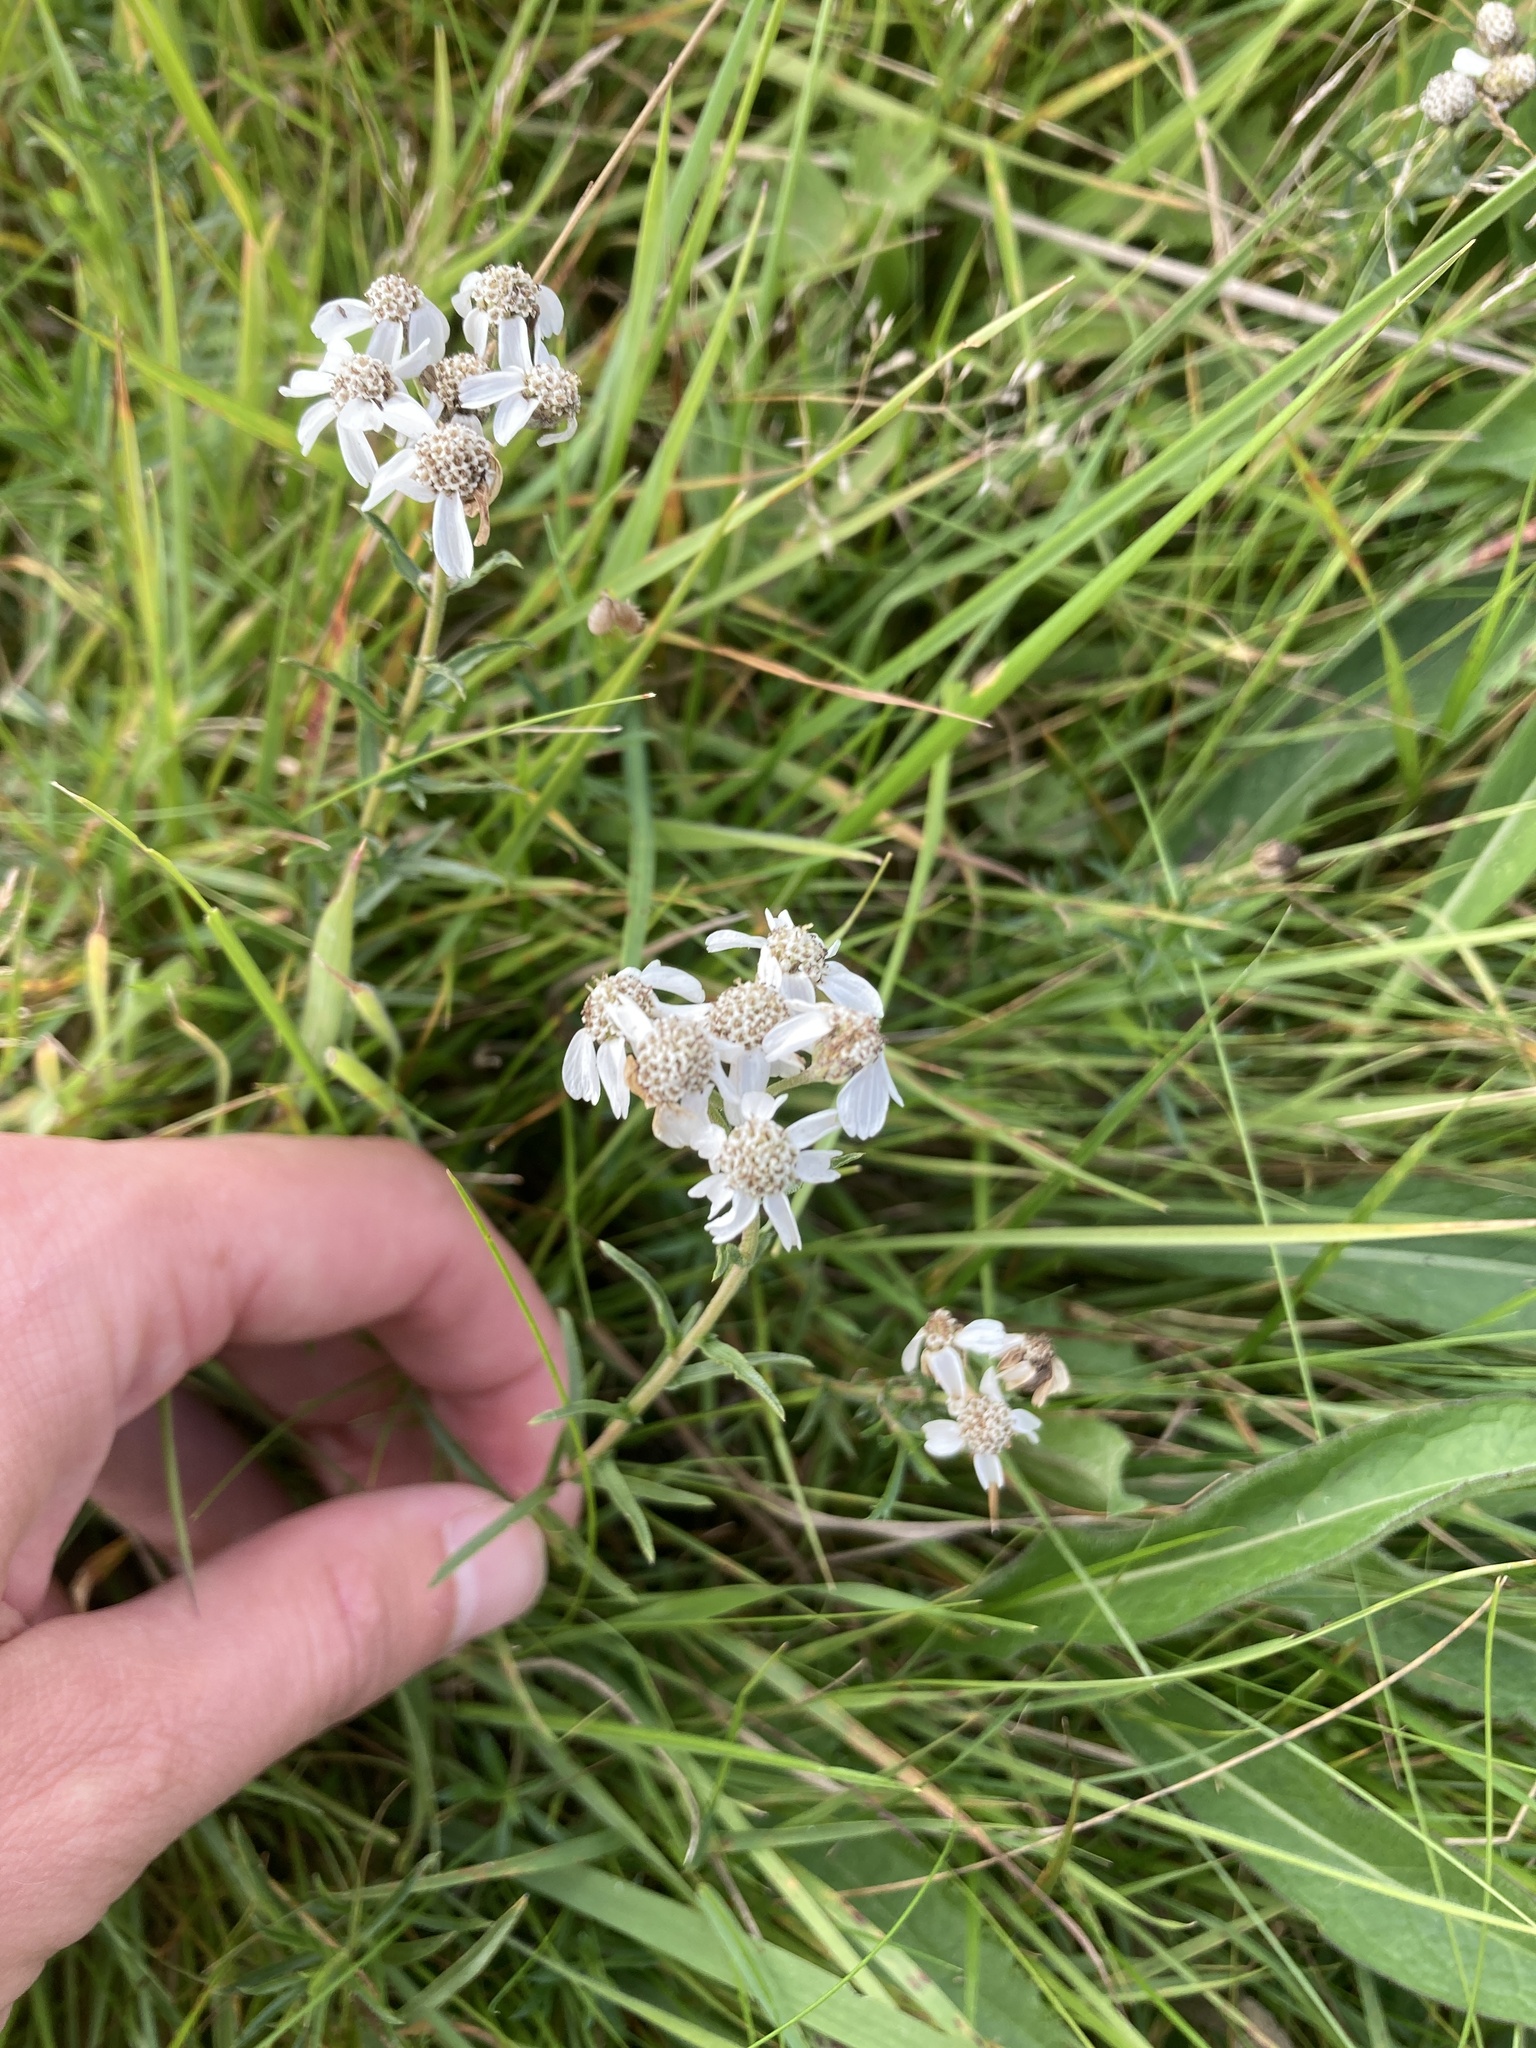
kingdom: Plantae
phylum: Tracheophyta
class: Magnoliopsida
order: Asterales
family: Asteraceae
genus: Achillea
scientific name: Achillea ptarmica
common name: Sneezeweed
